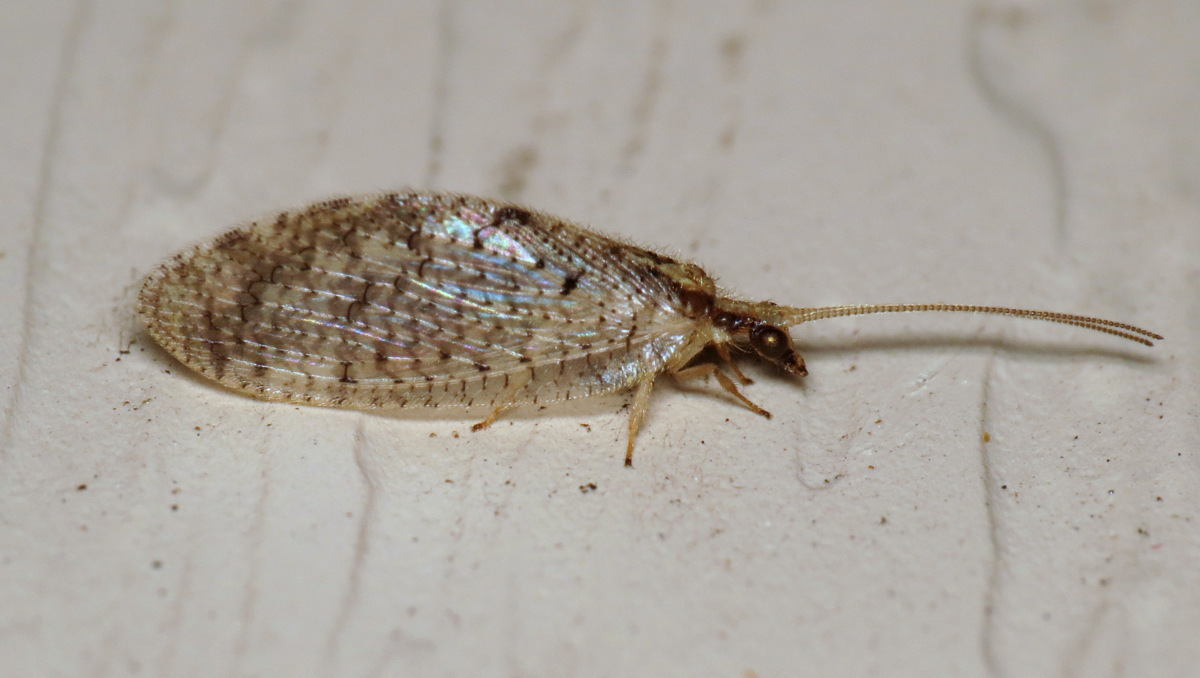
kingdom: Animalia
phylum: Arthropoda
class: Insecta
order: Neuroptera
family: Hemerobiidae
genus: Hemerobius
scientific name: Hemerobius humulinus
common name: Humulin brown lacewing
